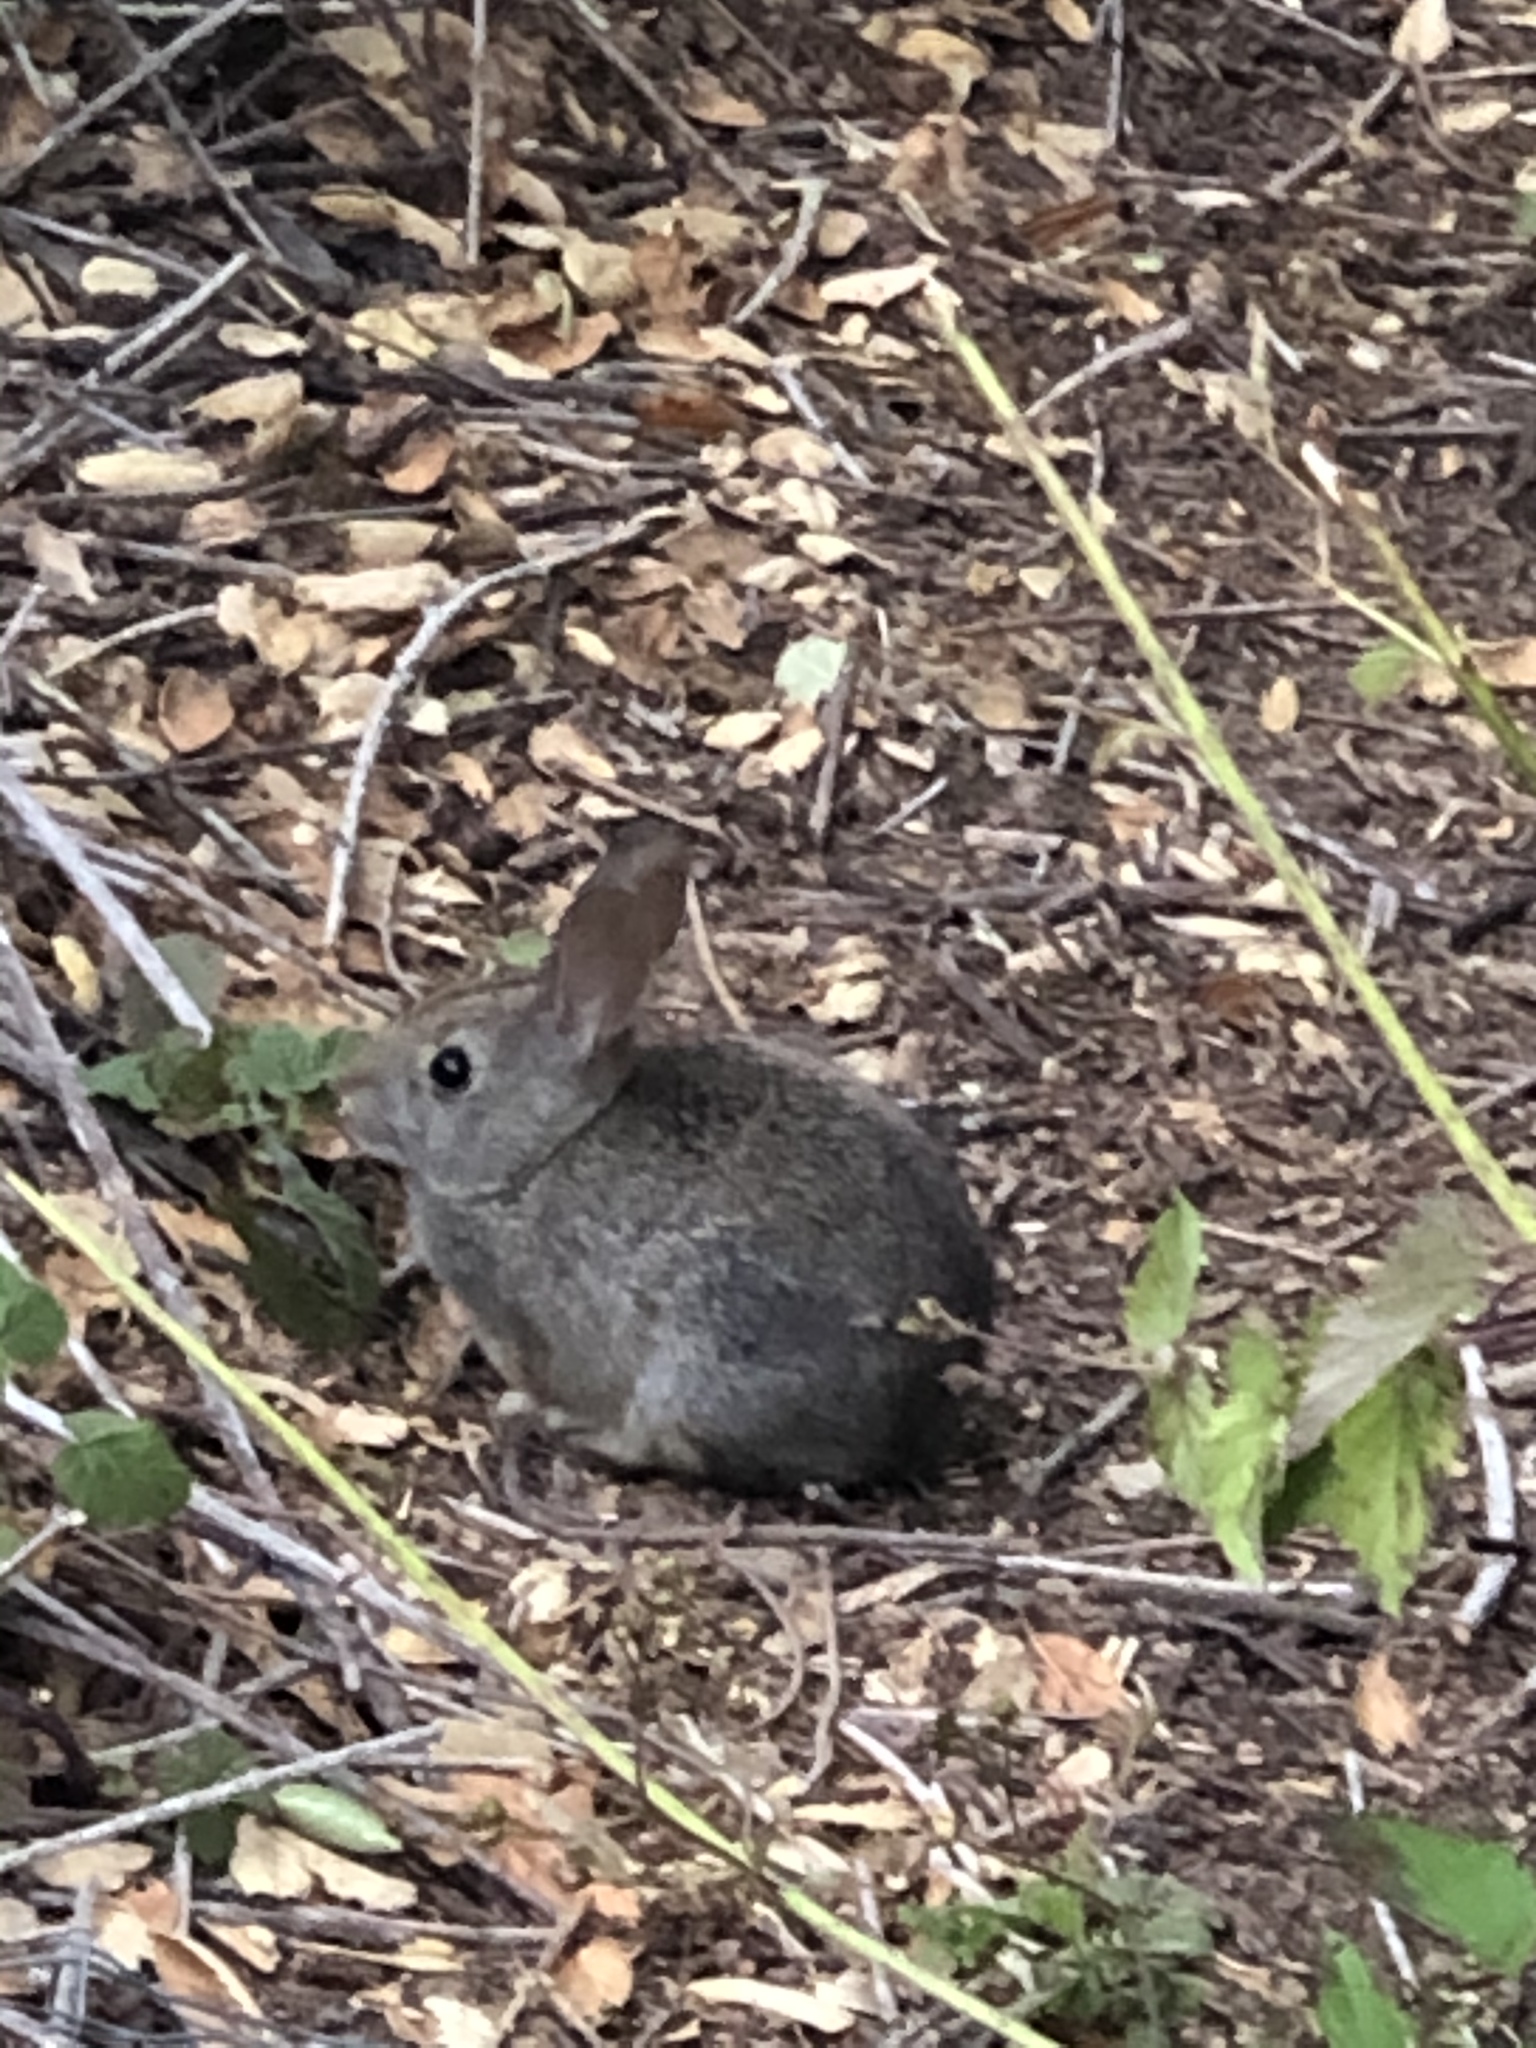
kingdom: Animalia
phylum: Chordata
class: Mammalia
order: Lagomorpha
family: Leporidae
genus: Sylvilagus
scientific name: Sylvilagus bachmani
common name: Brush rabbit
